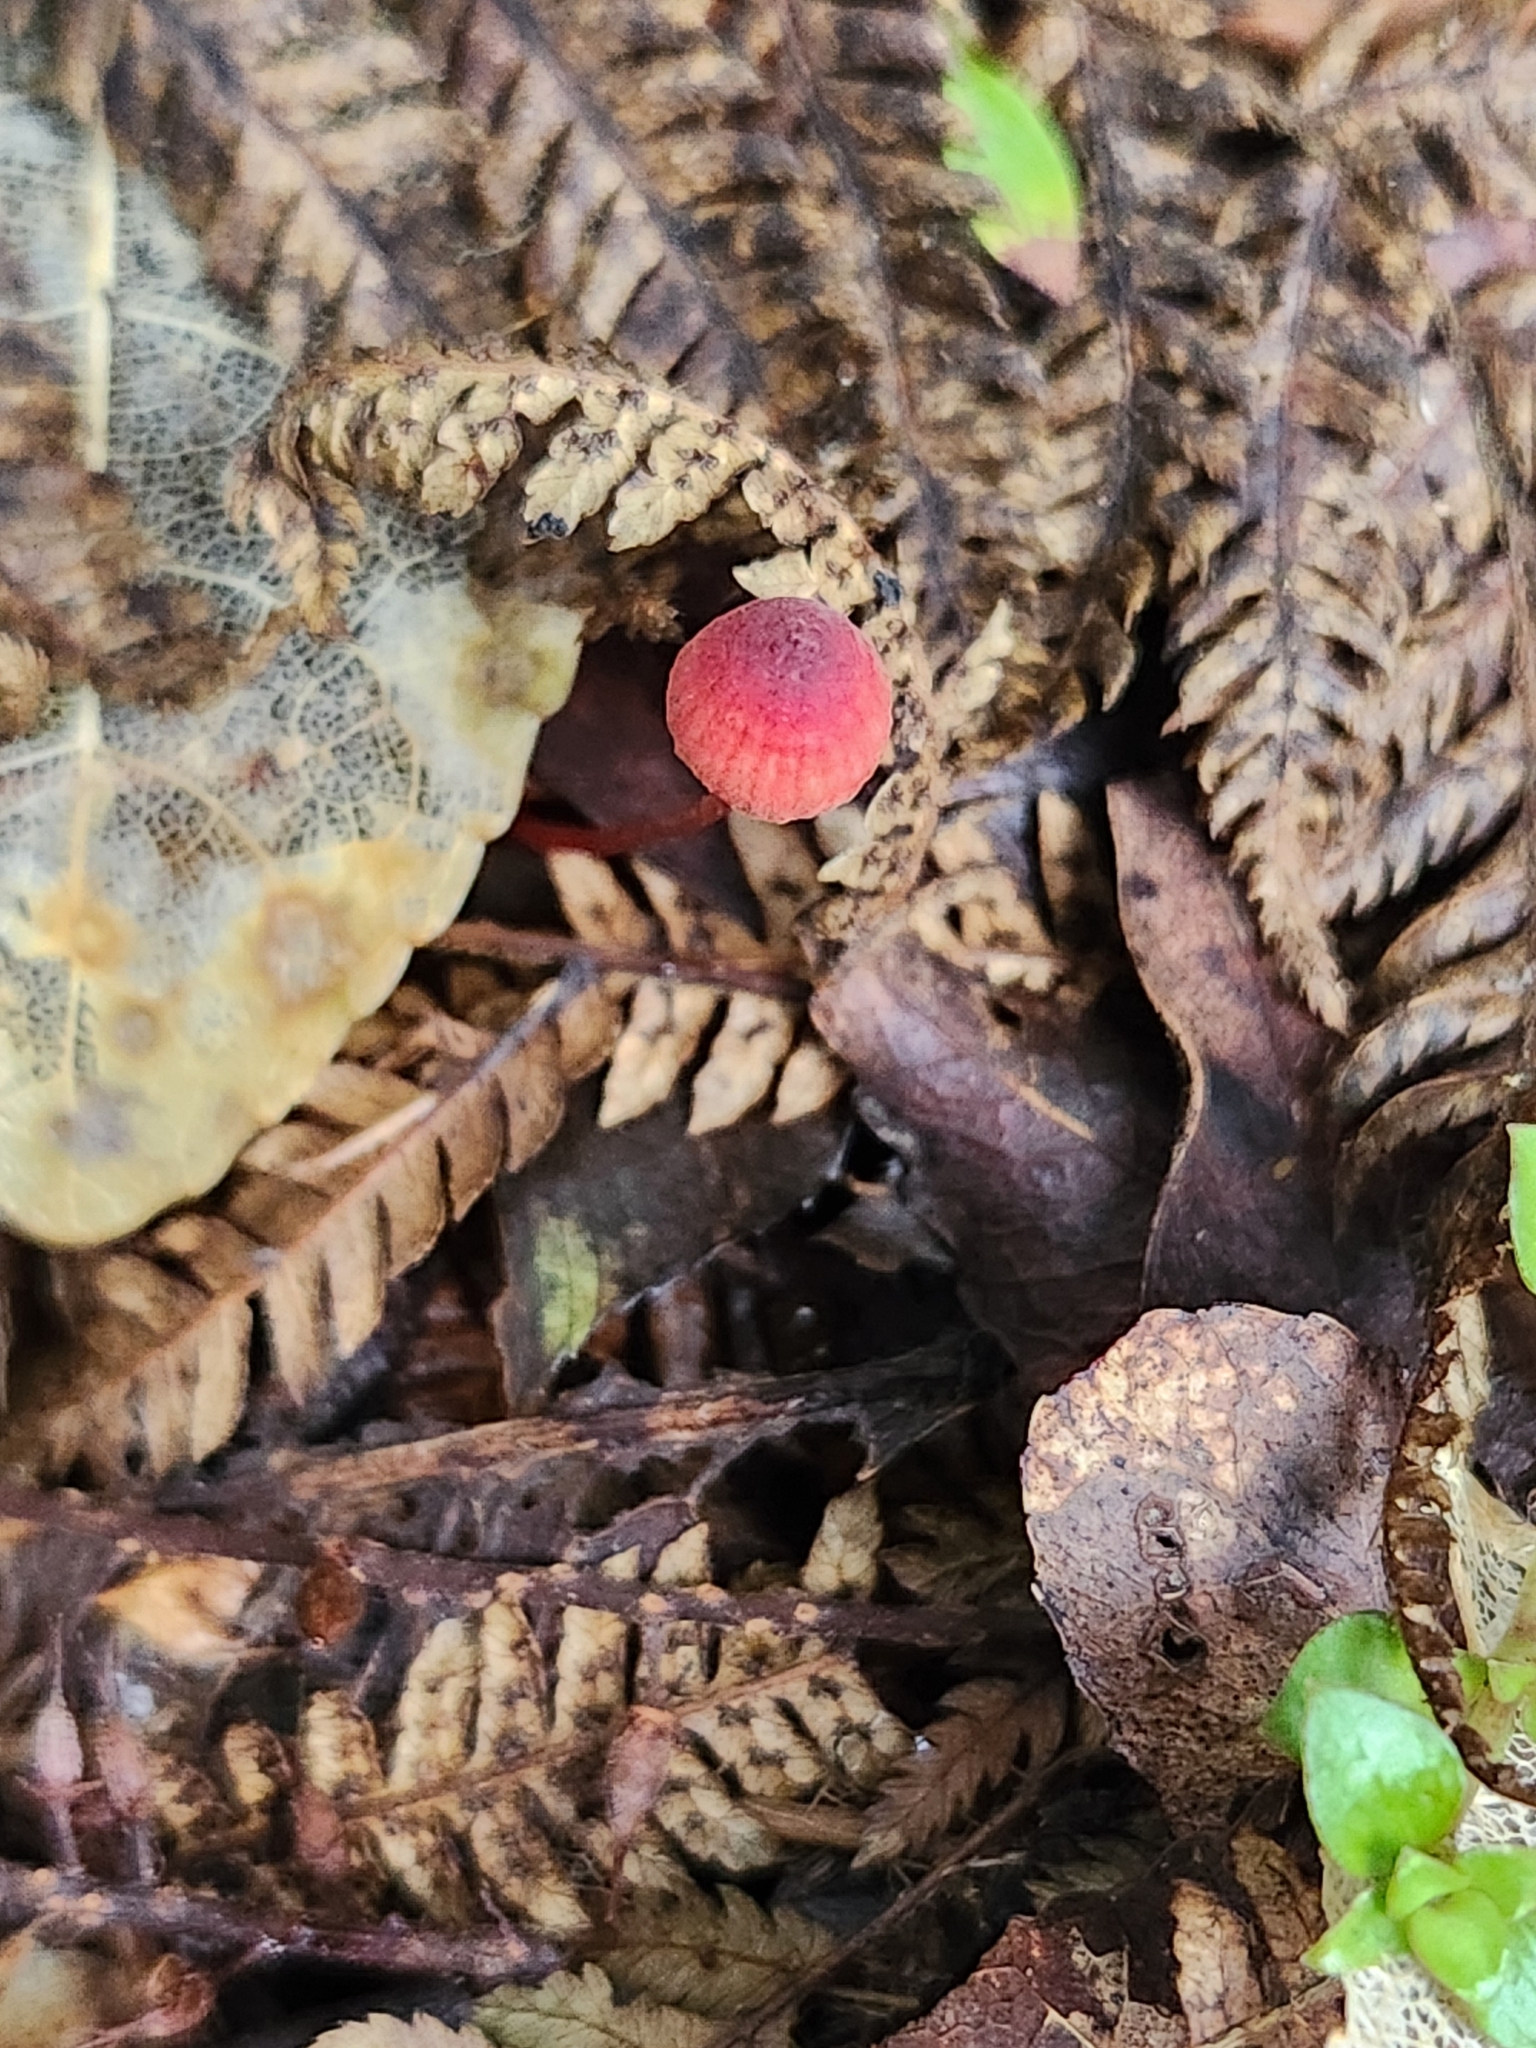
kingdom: Fungi
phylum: Basidiomycota
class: Agaricomycetes
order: Agaricales
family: Mycenaceae
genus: Mycena
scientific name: Mycena ura
